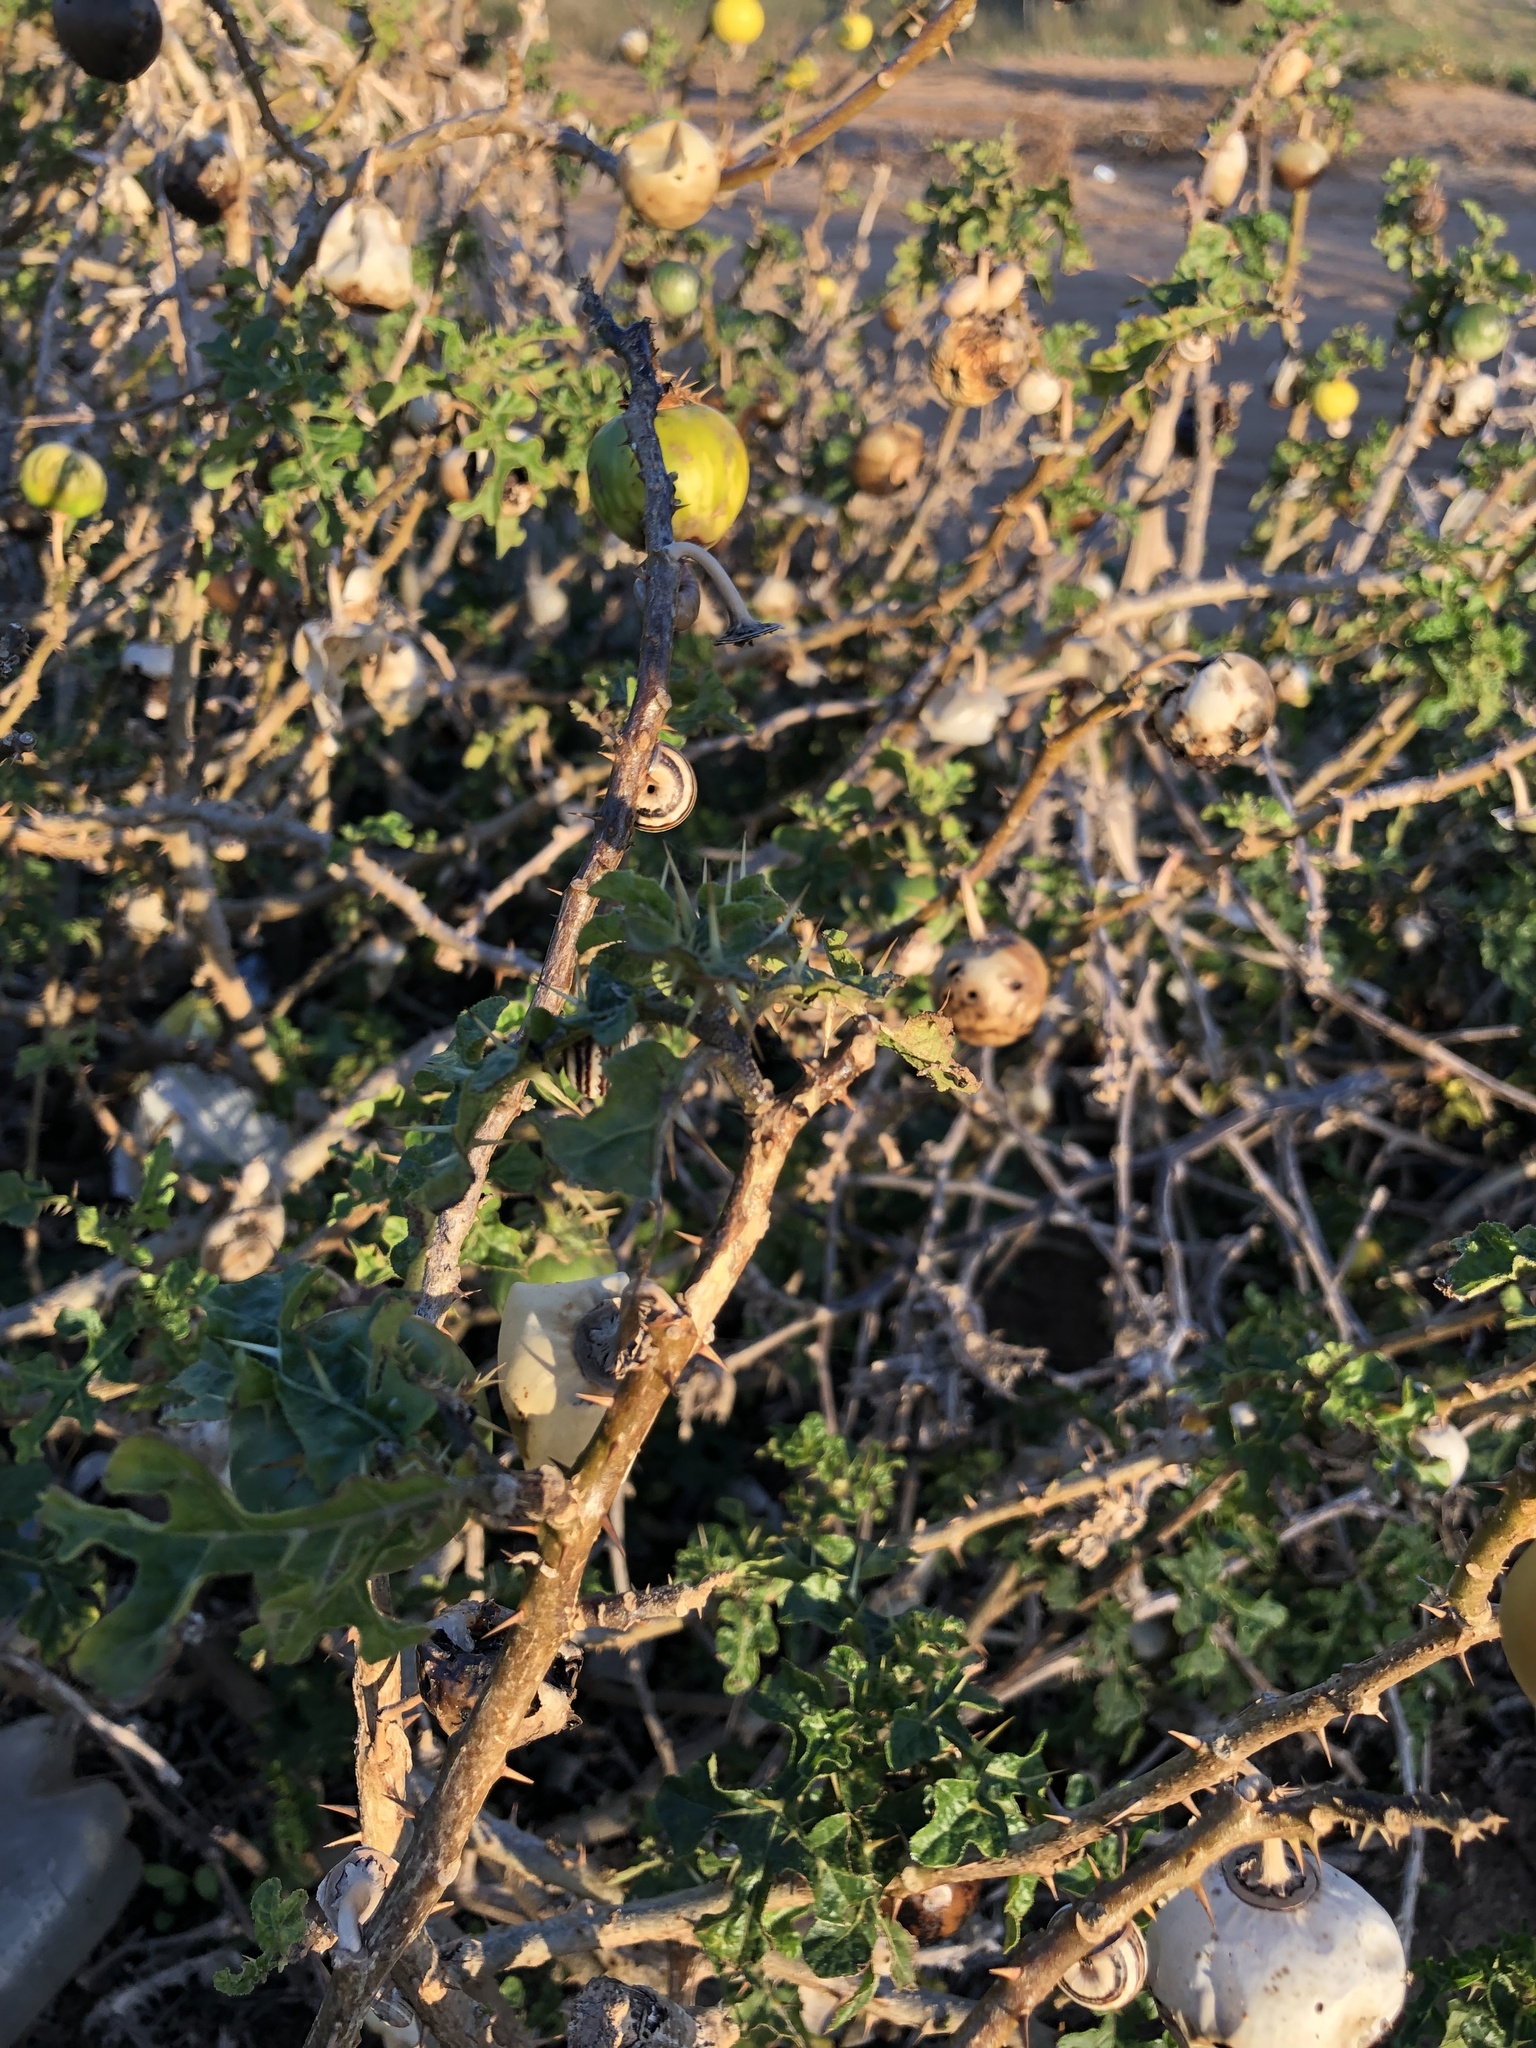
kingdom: Plantae
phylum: Tracheophyta
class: Magnoliopsida
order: Solanales
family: Solanaceae
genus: Solanum
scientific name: Solanum linnaeanum
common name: Nightshade
